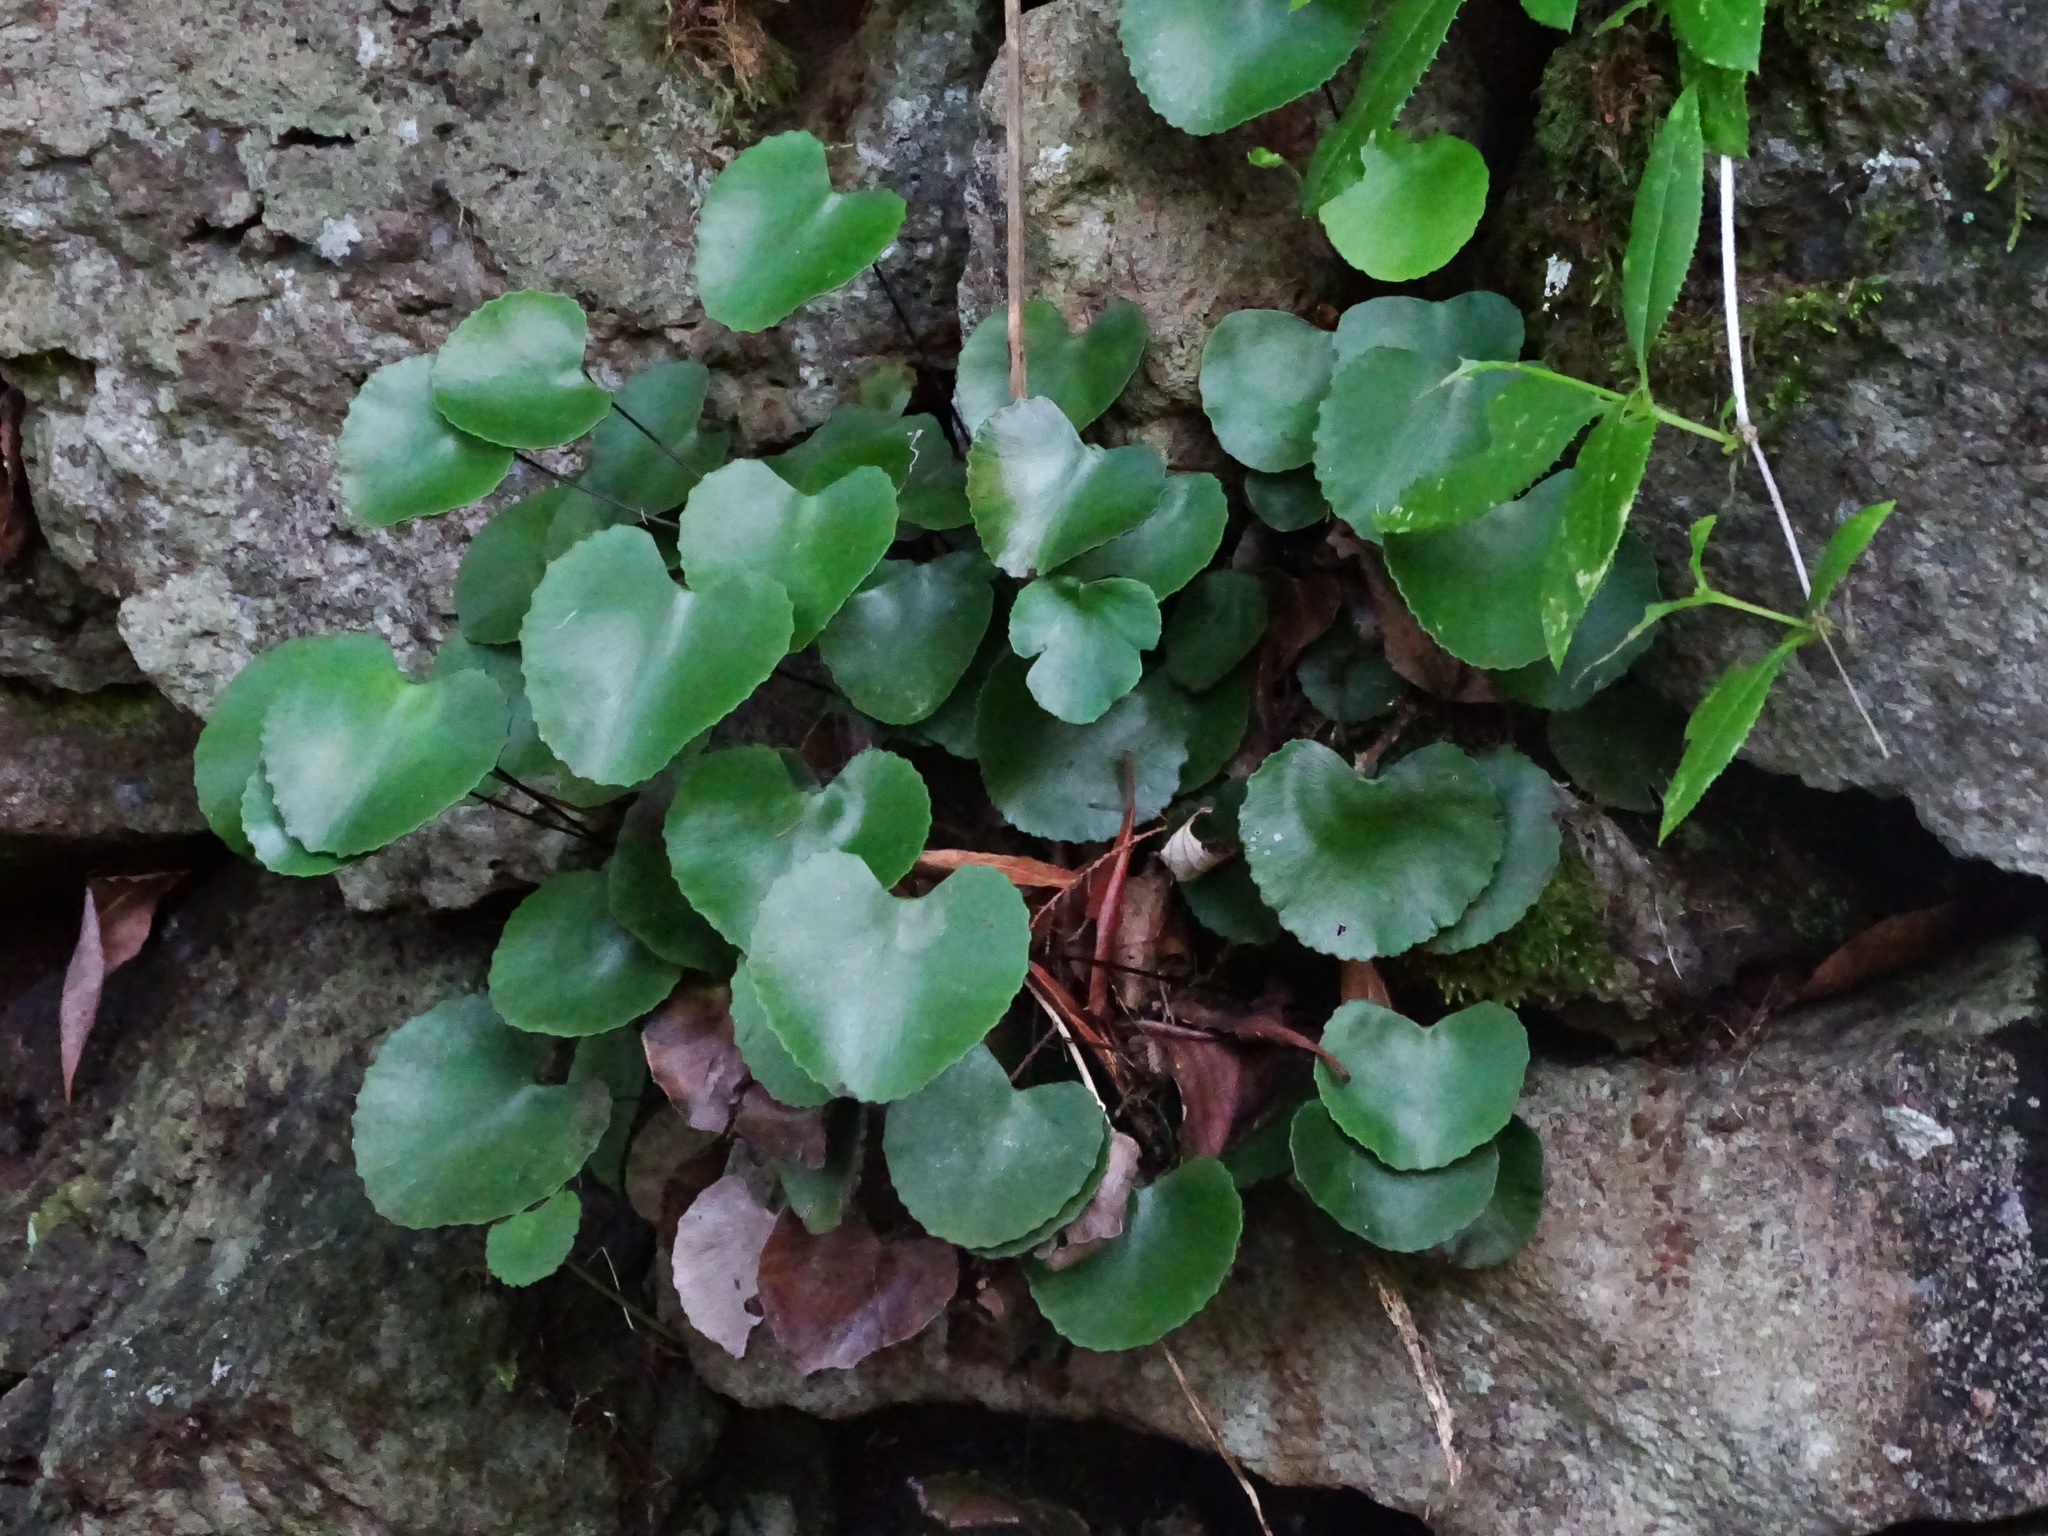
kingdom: Plantae
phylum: Tracheophyta
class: Polypodiopsida
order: Polypodiales
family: Pteridaceae
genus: Adiantum
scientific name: Adiantum reniforme
